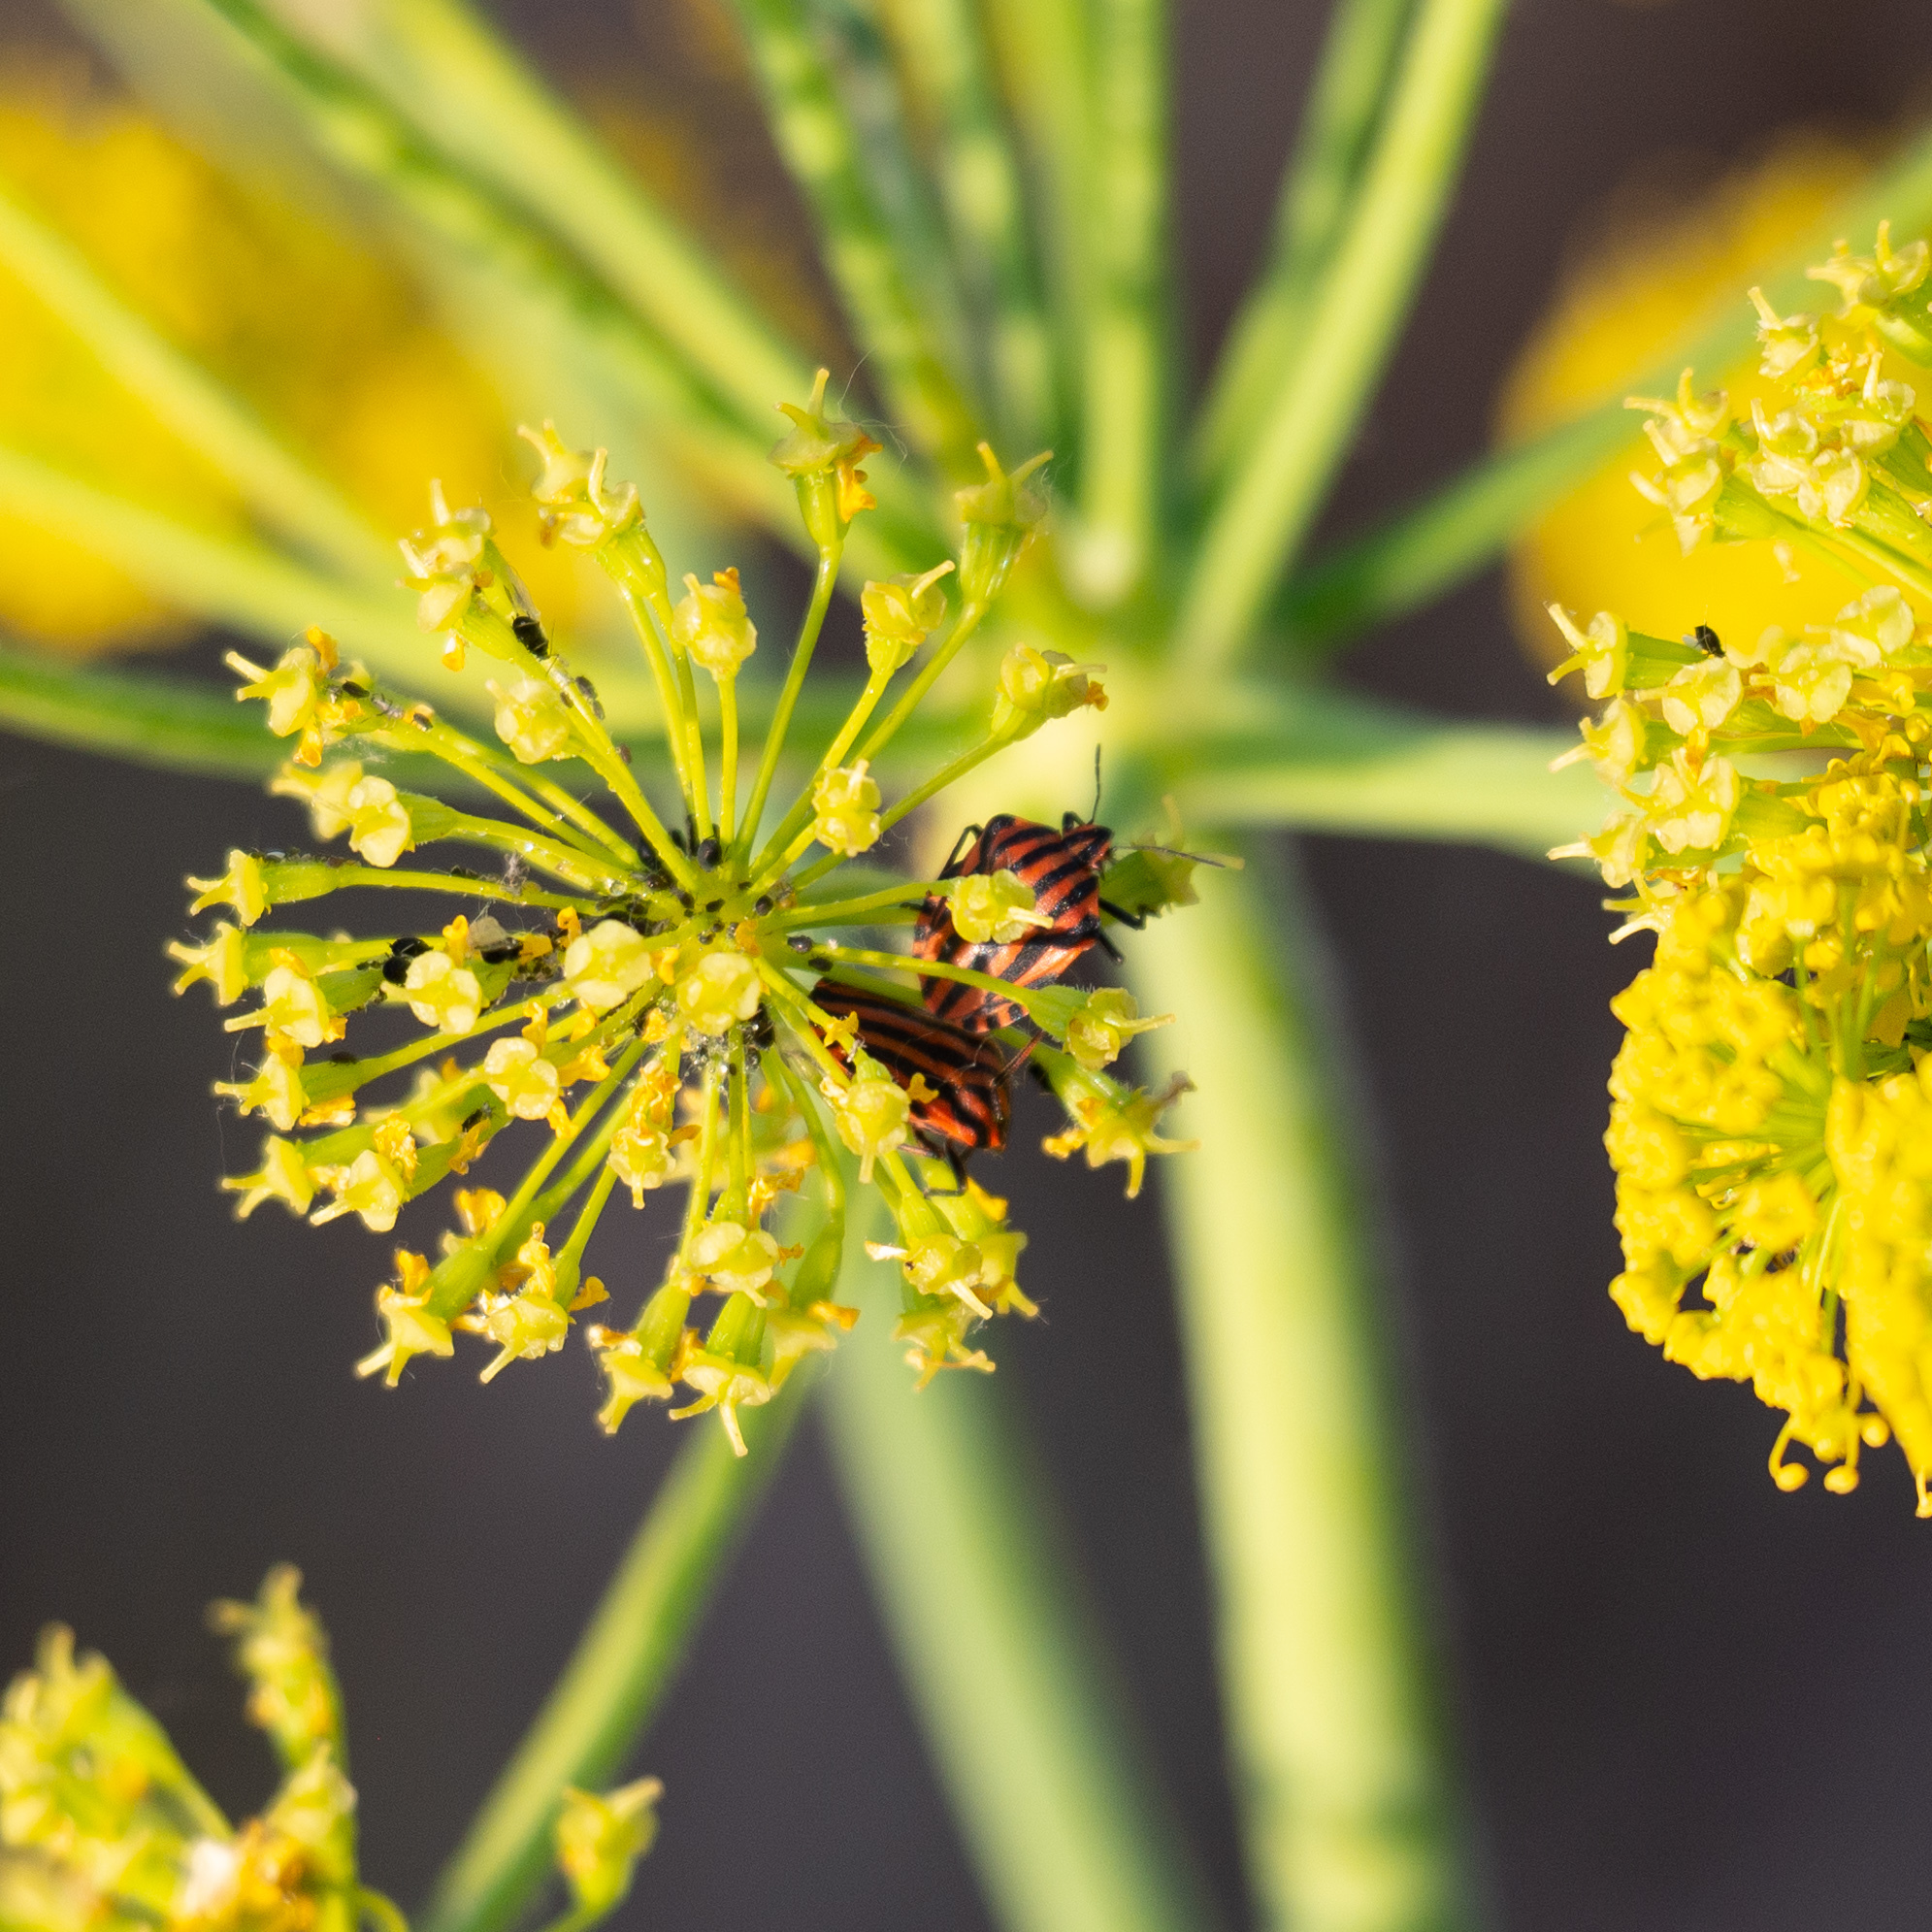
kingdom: Animalia
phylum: Arthropoda
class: Insecta
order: Hemiptera
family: Pentatomidae
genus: Graphosoma
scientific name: Graphosoma italicum
